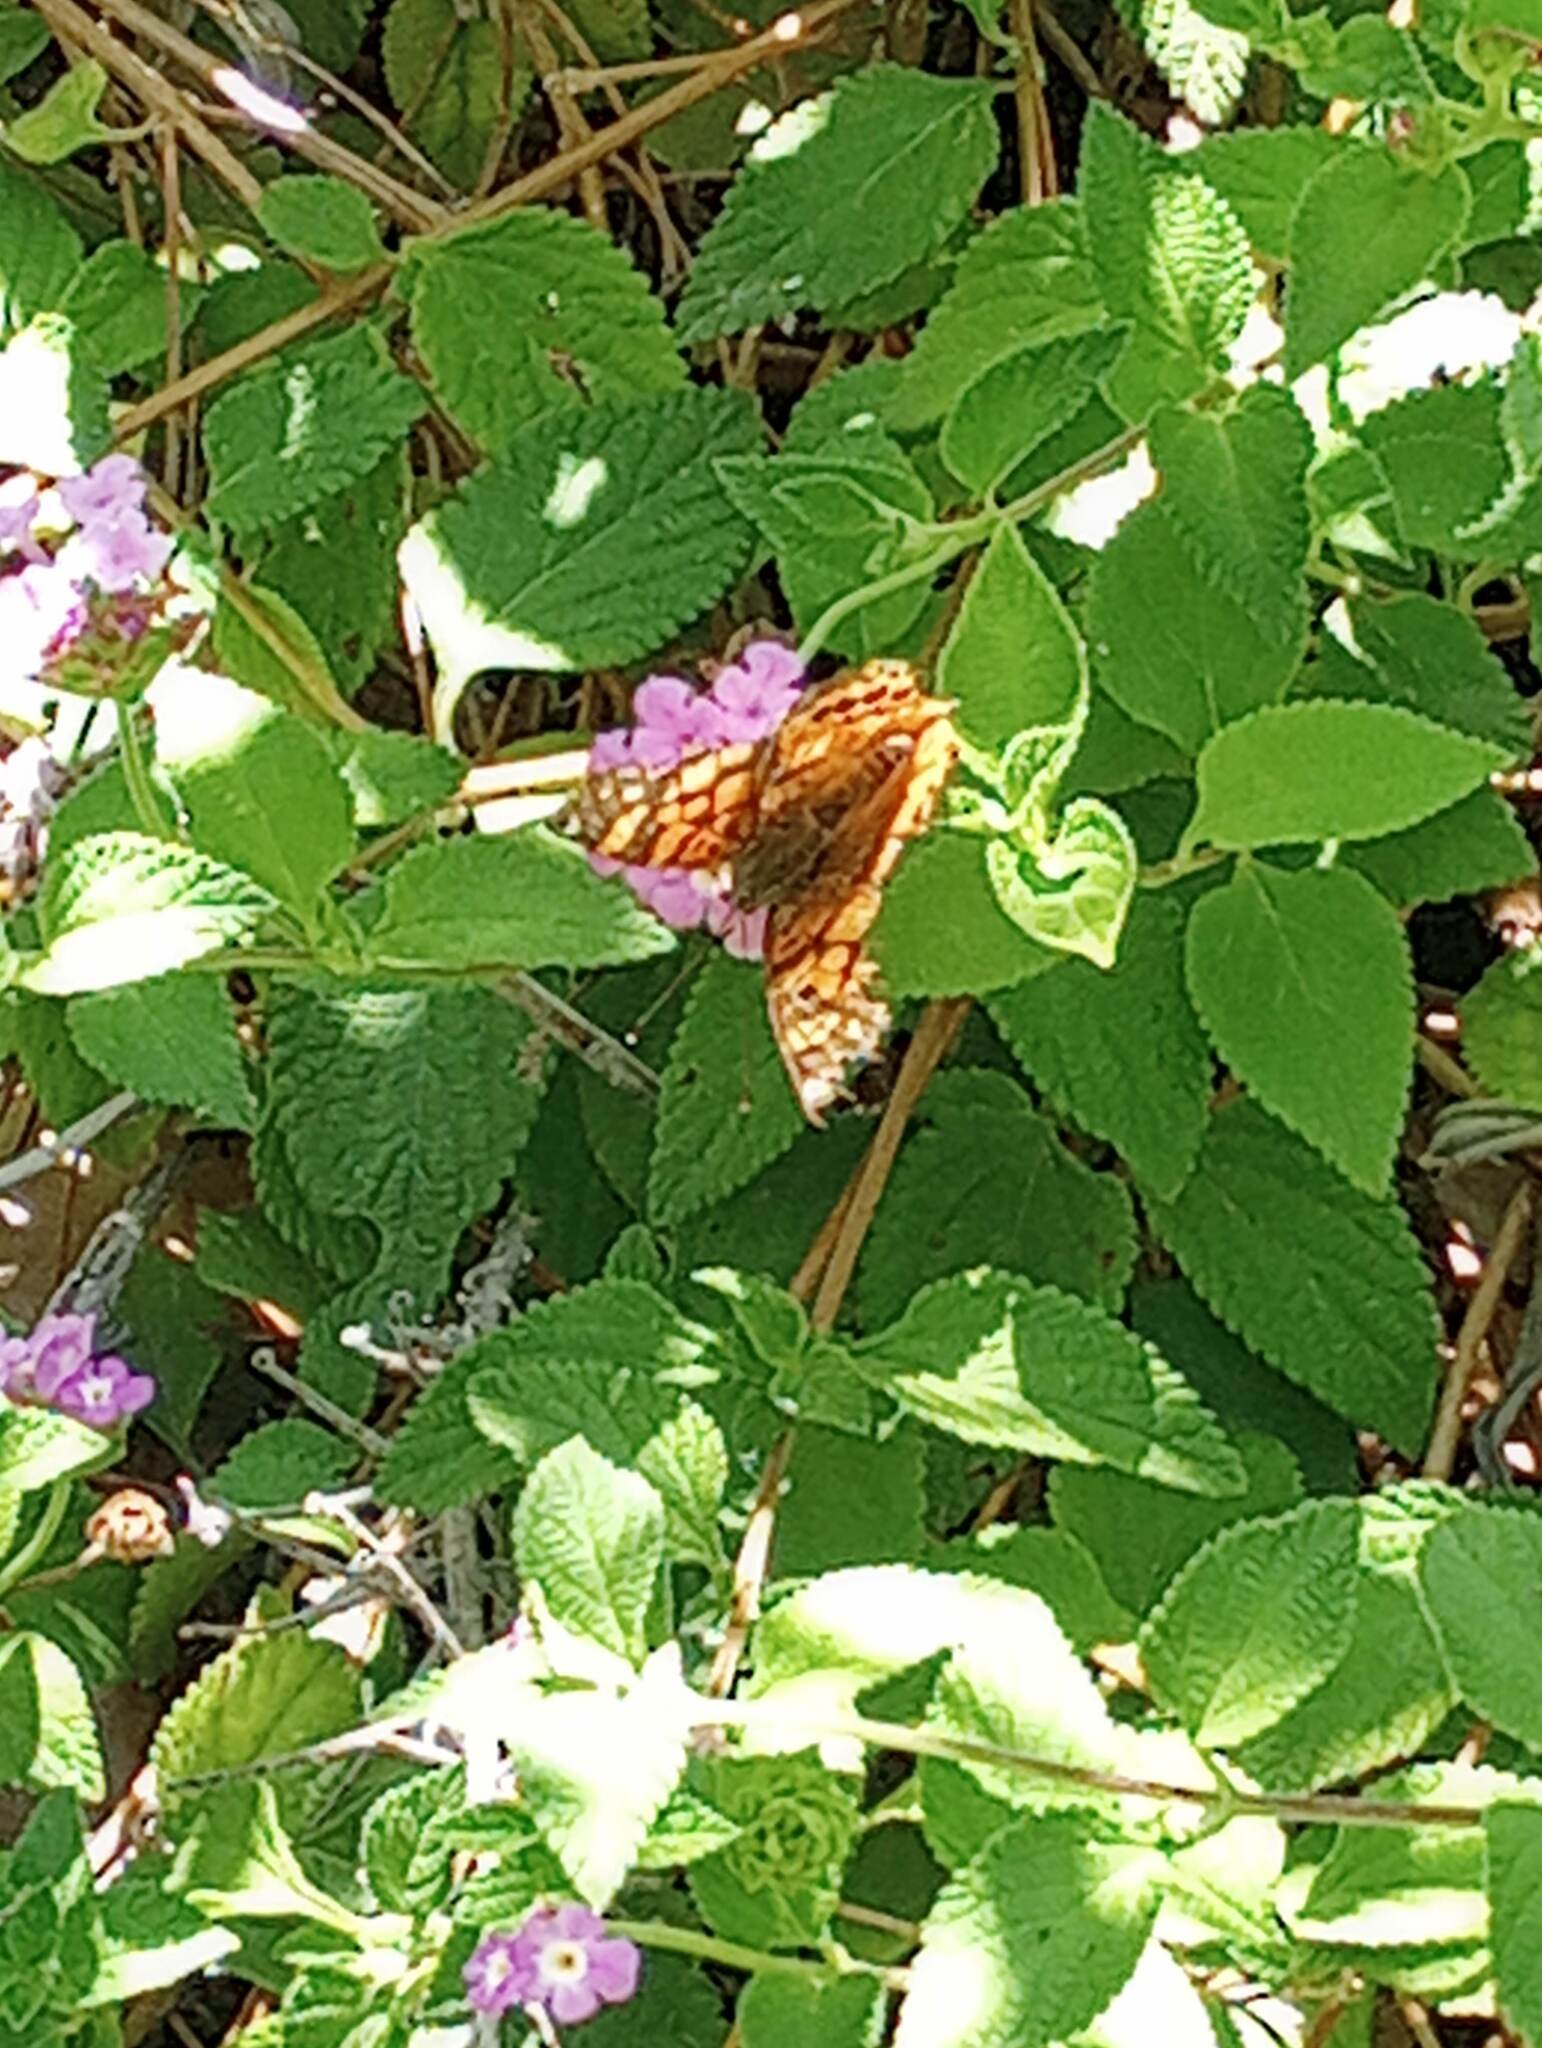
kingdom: Animalia
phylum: Arthropoda
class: Insecta
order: Lepidoptera
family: Nymphalidae
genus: Vanessa
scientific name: Vanessa annabella
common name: West coast lady
